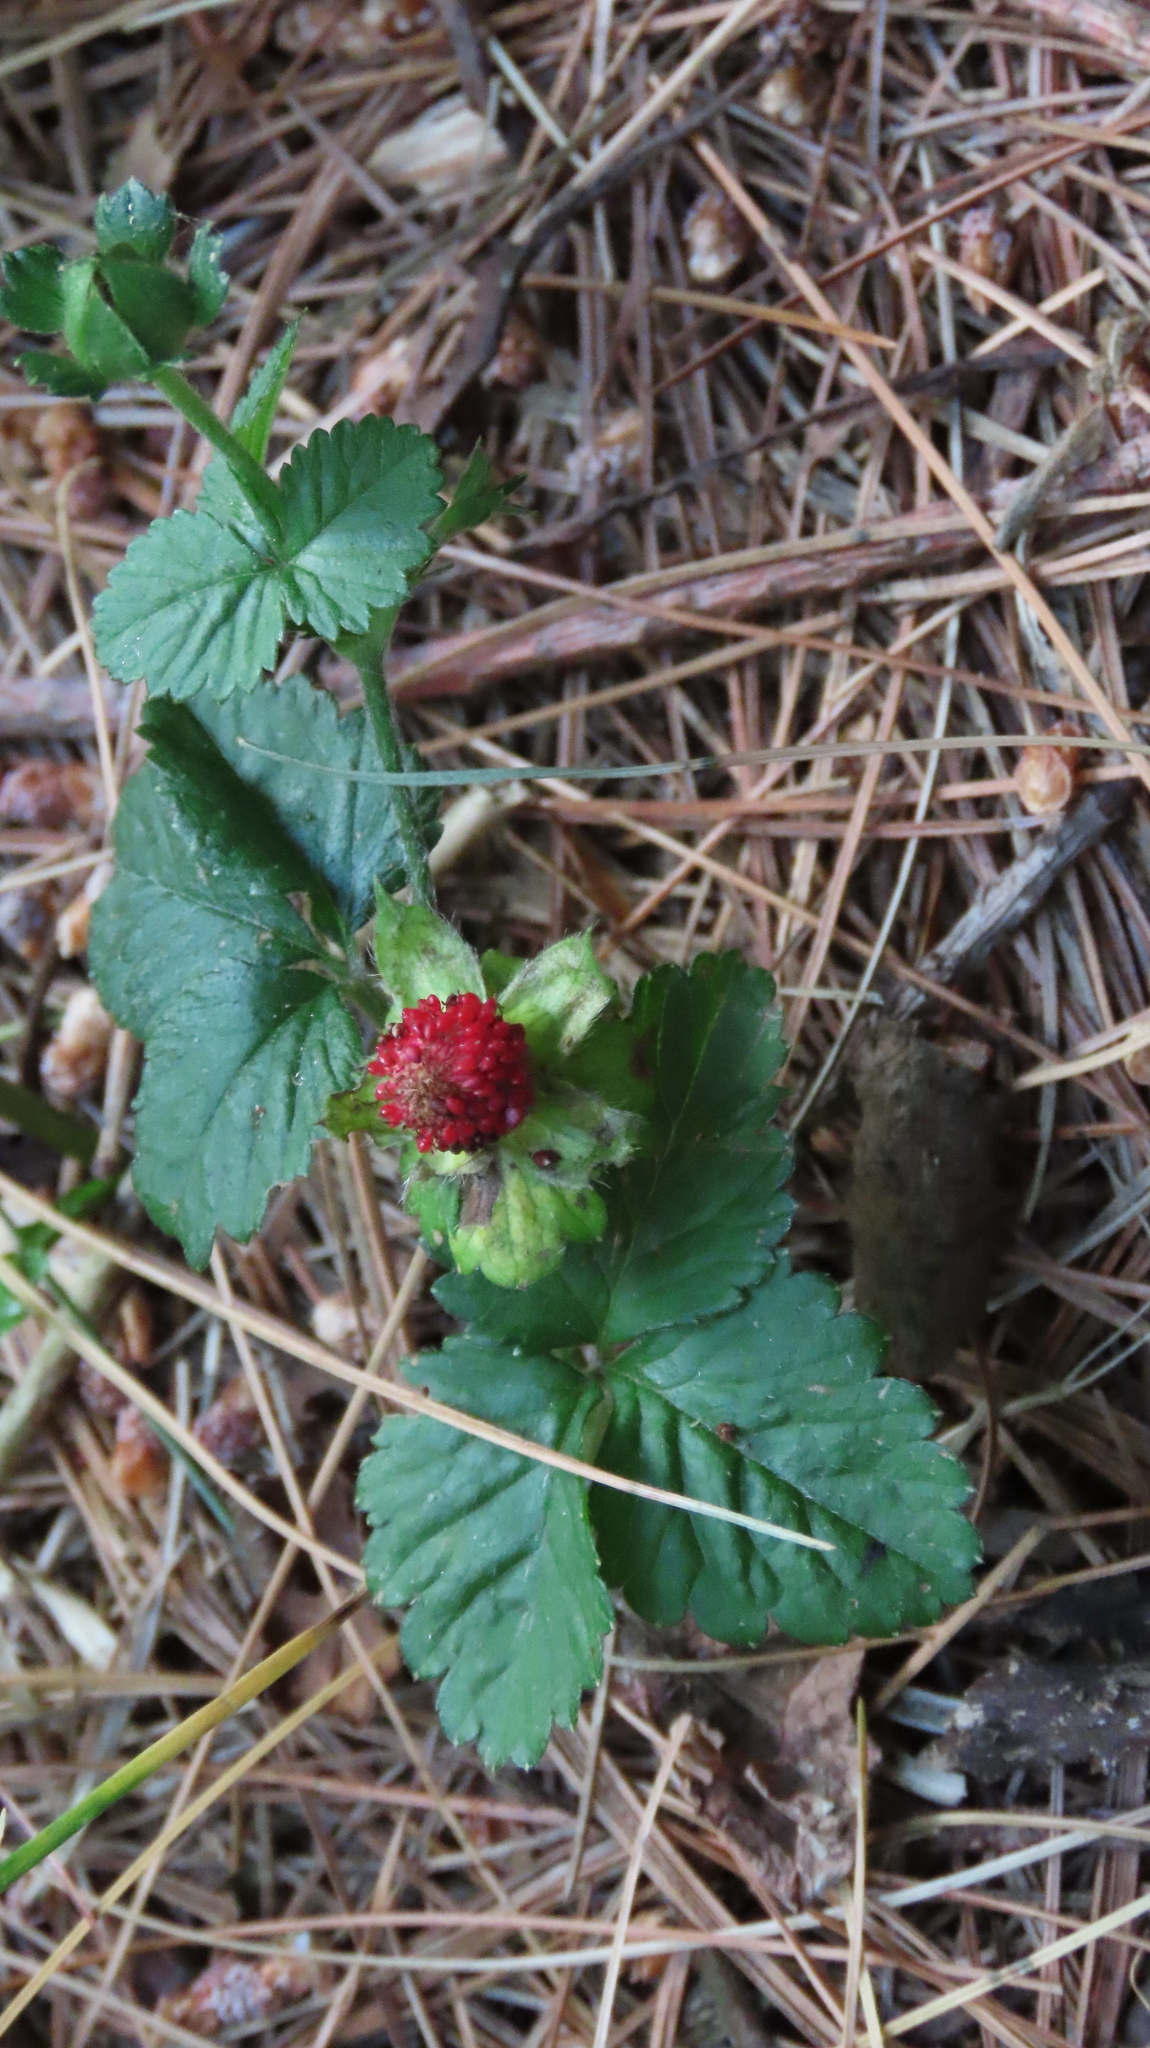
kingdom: Plantae
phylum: Tracheophyta
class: Magnoliopsida
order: Rosales
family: Rosaceae
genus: Potentilla
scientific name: Potentilla indica
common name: Yellow-flowered strawberry
